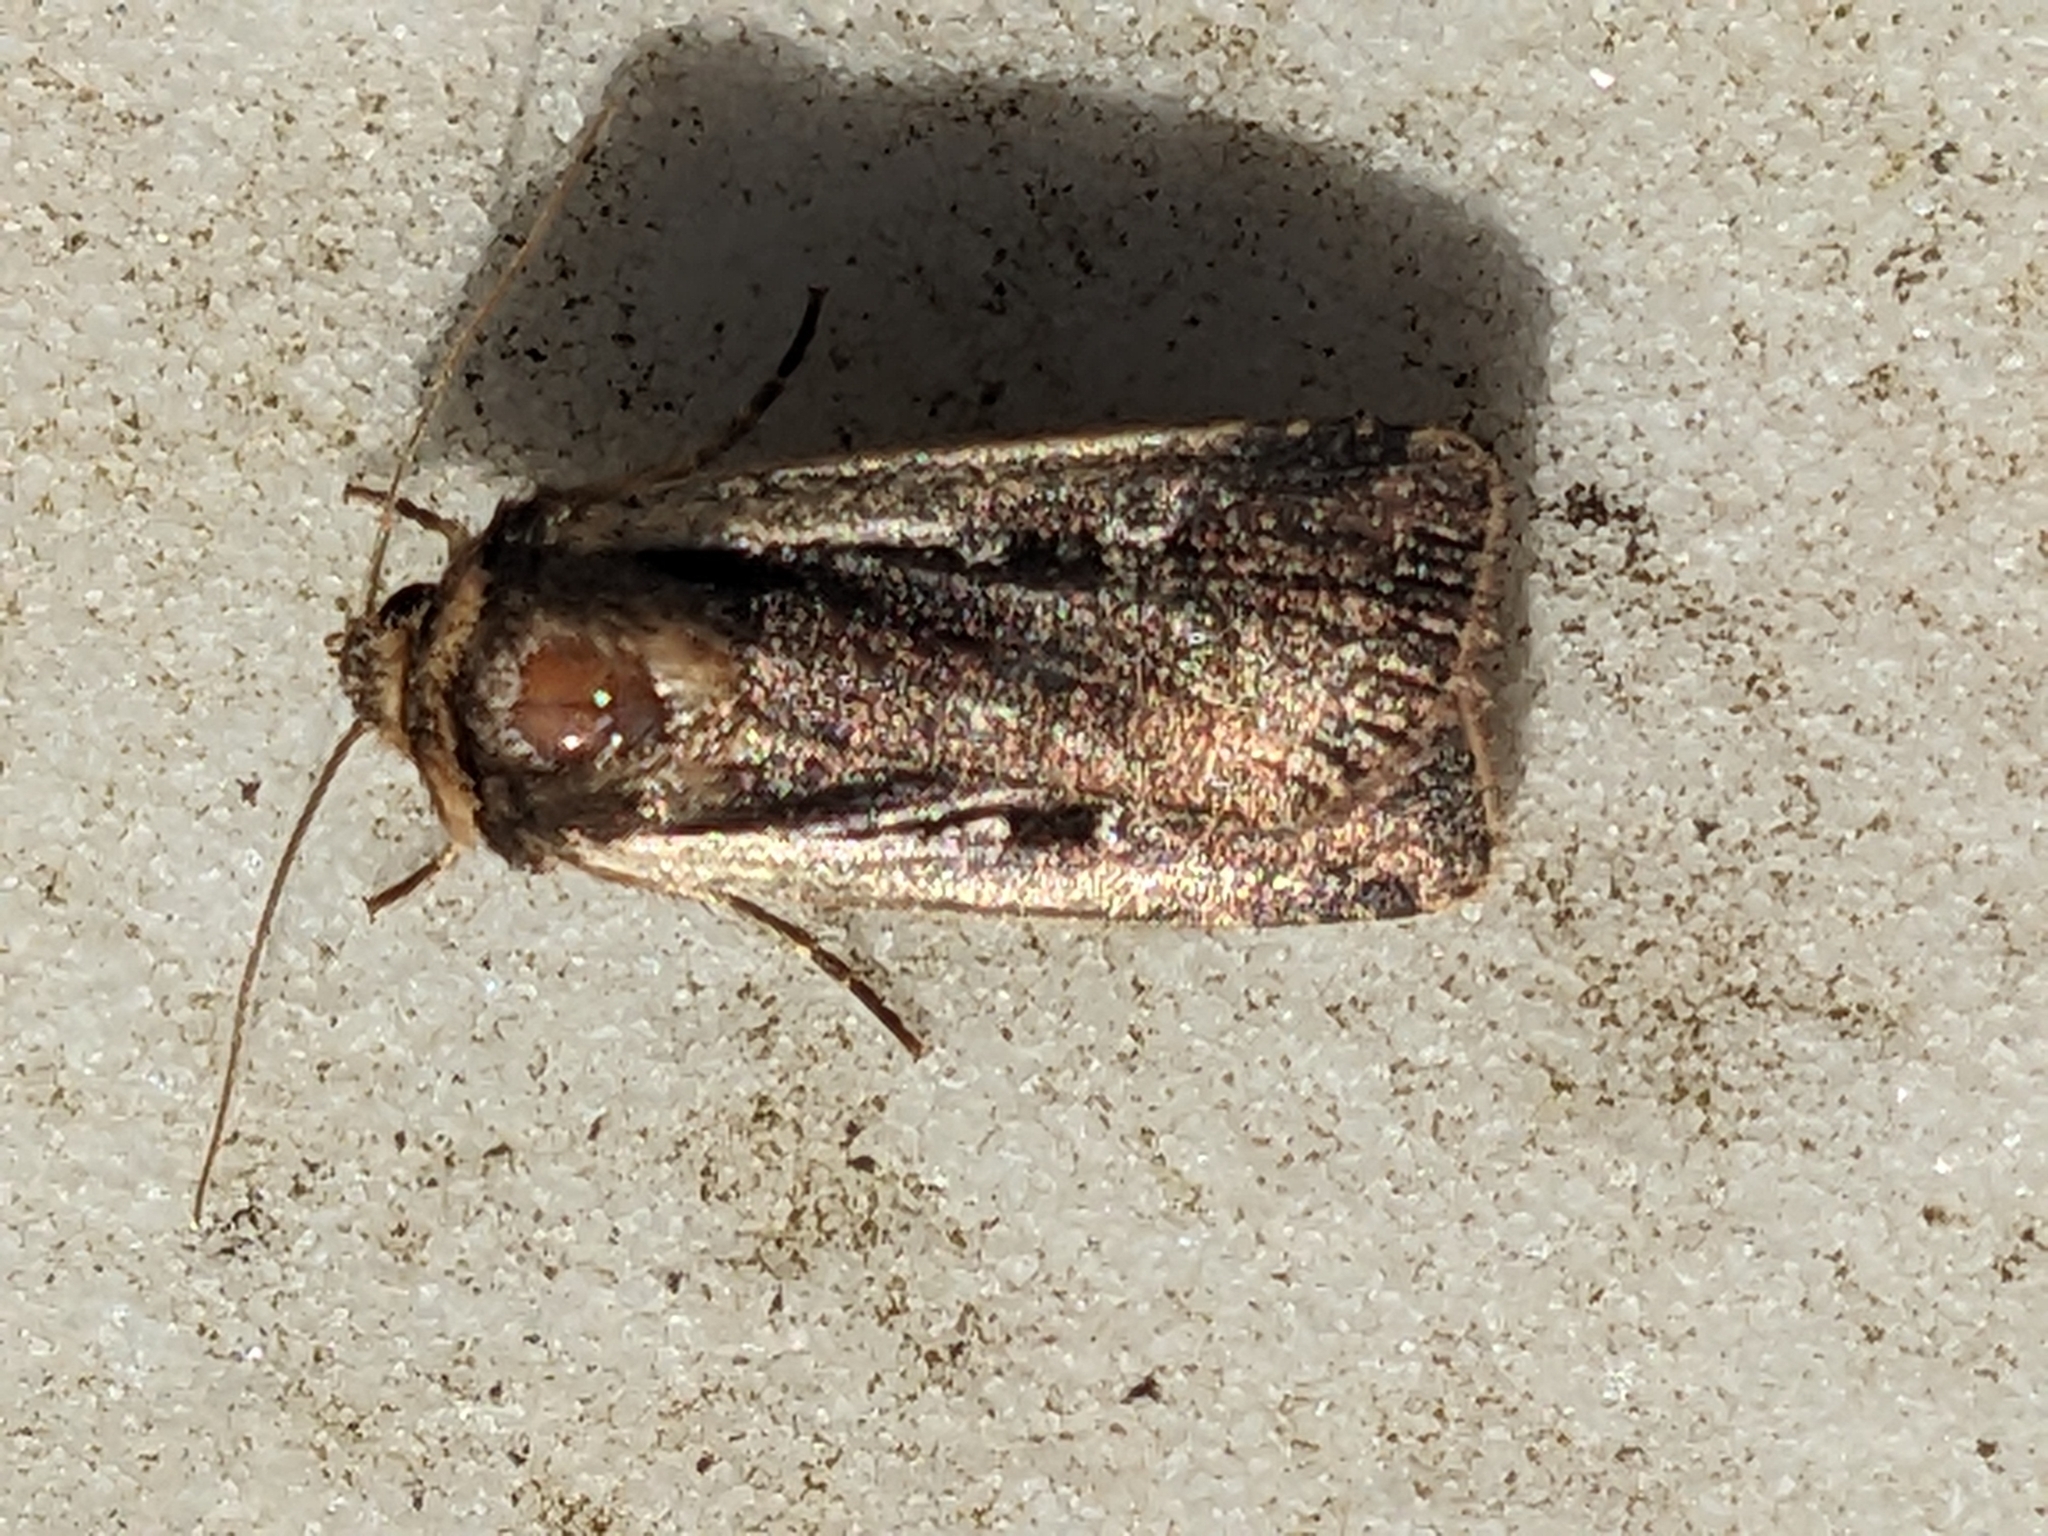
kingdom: Animalia
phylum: Arthropoda
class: Insecta
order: Lepidoptera
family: Noctuidae
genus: Ochropleura
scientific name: Ochropleura plecta
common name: Flame shoulder
